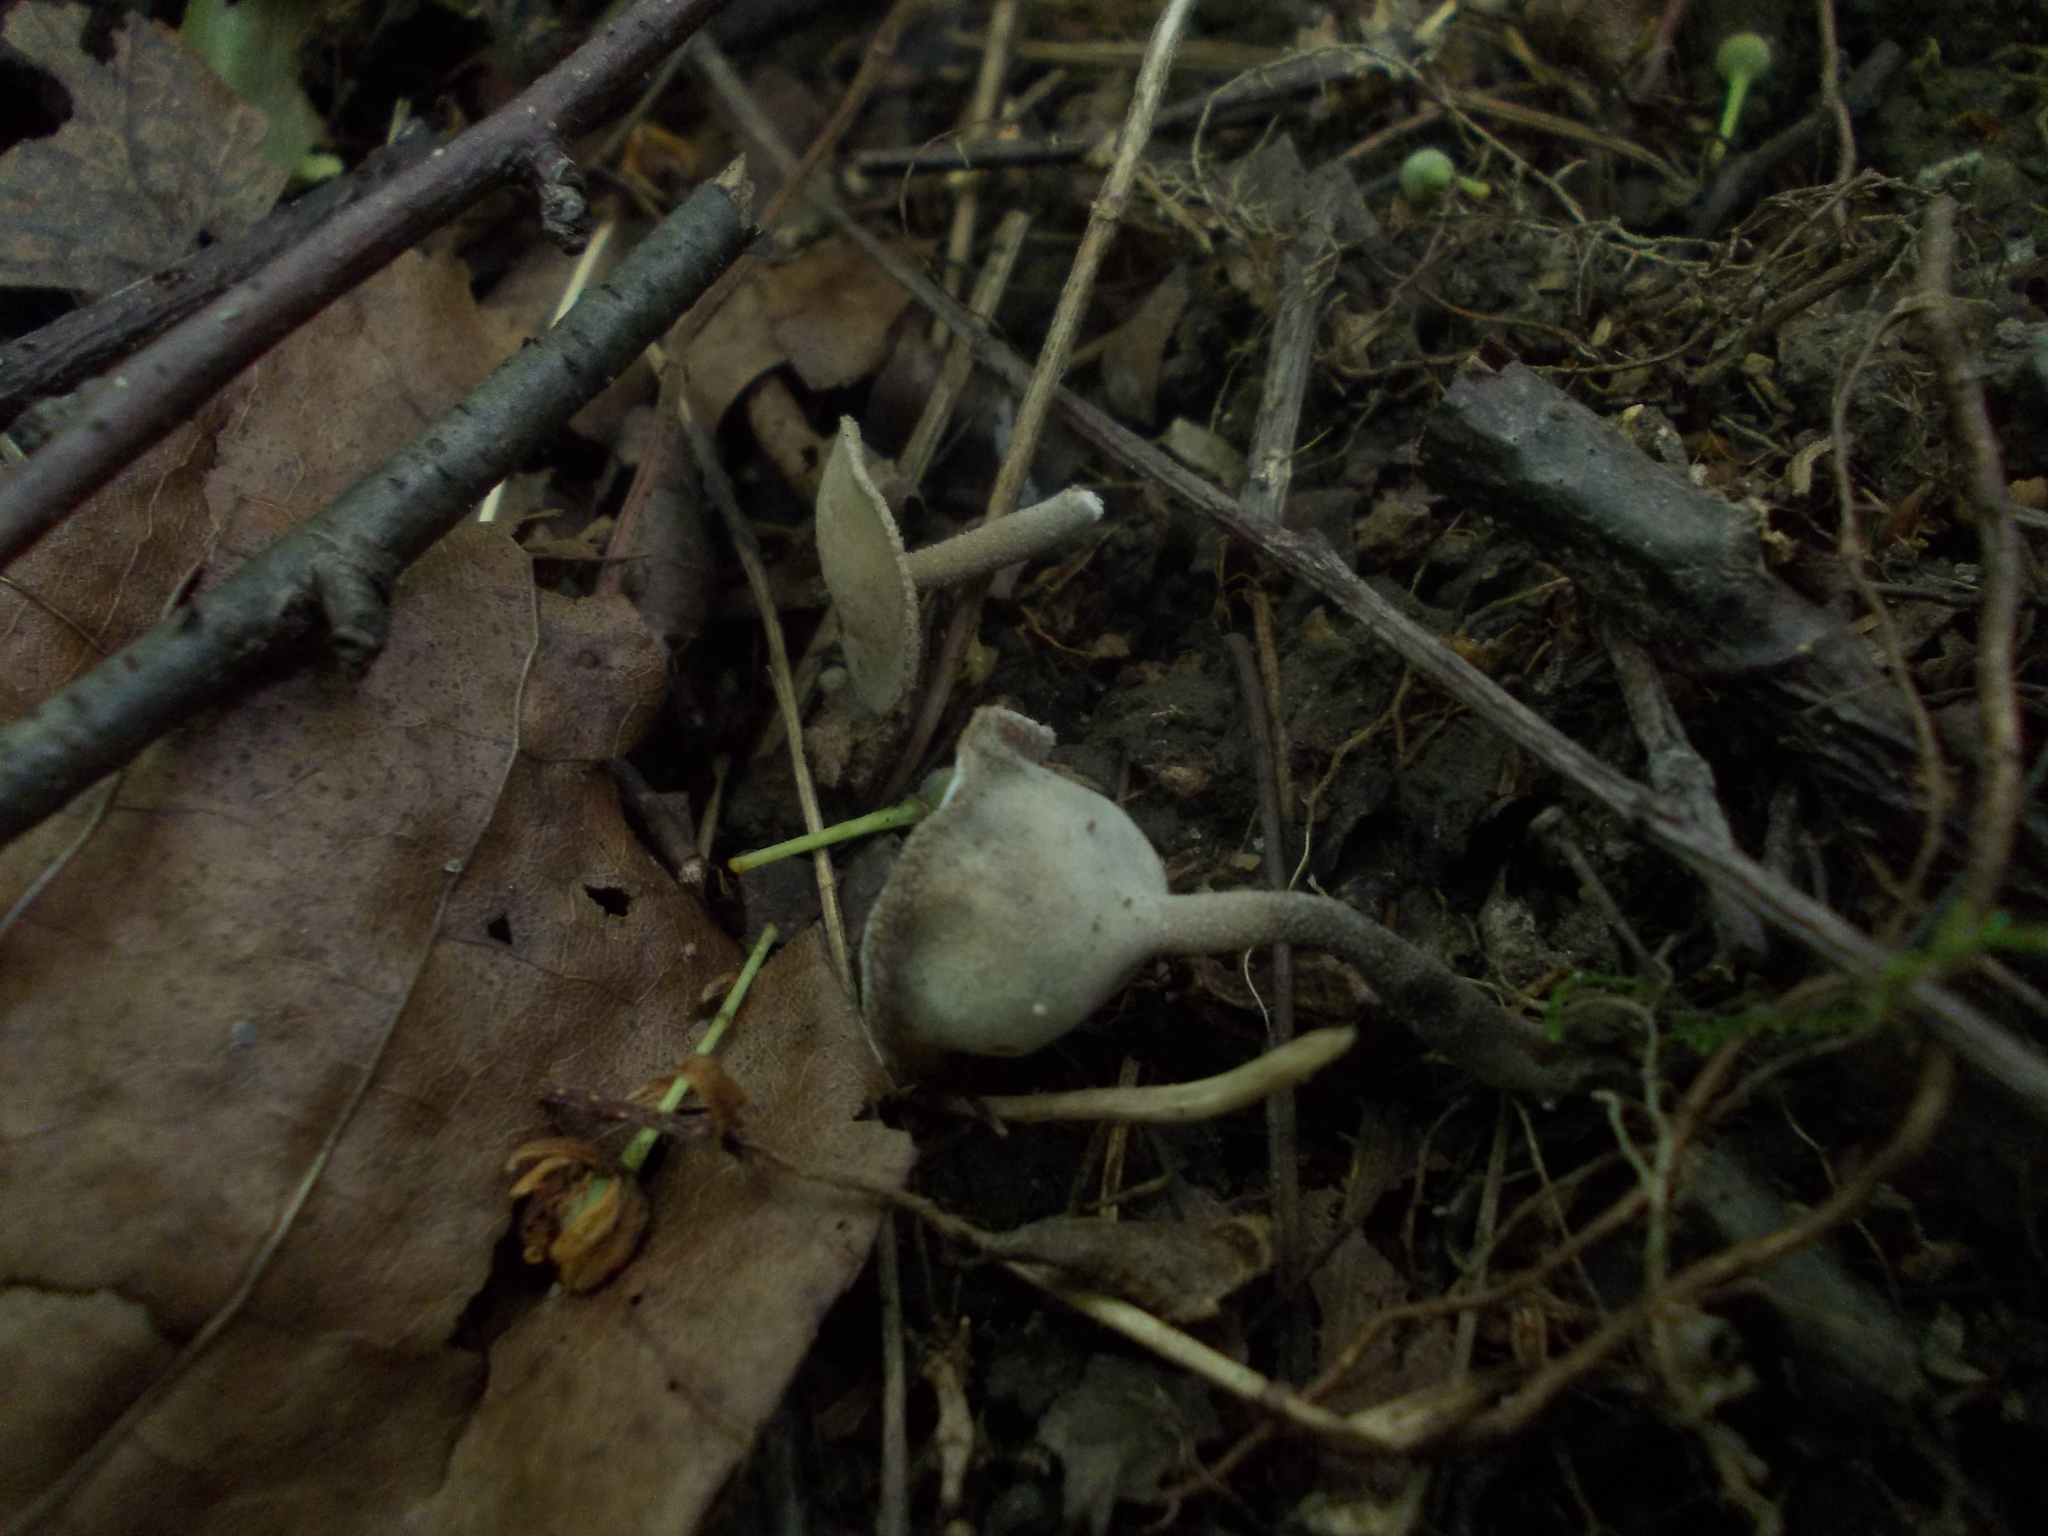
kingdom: Fungi
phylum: Ascomycota
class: Pezizomycetes
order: Pezizales
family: Helvellaceae
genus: Helvella
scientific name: Helvella macropus
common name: Felt saddle
